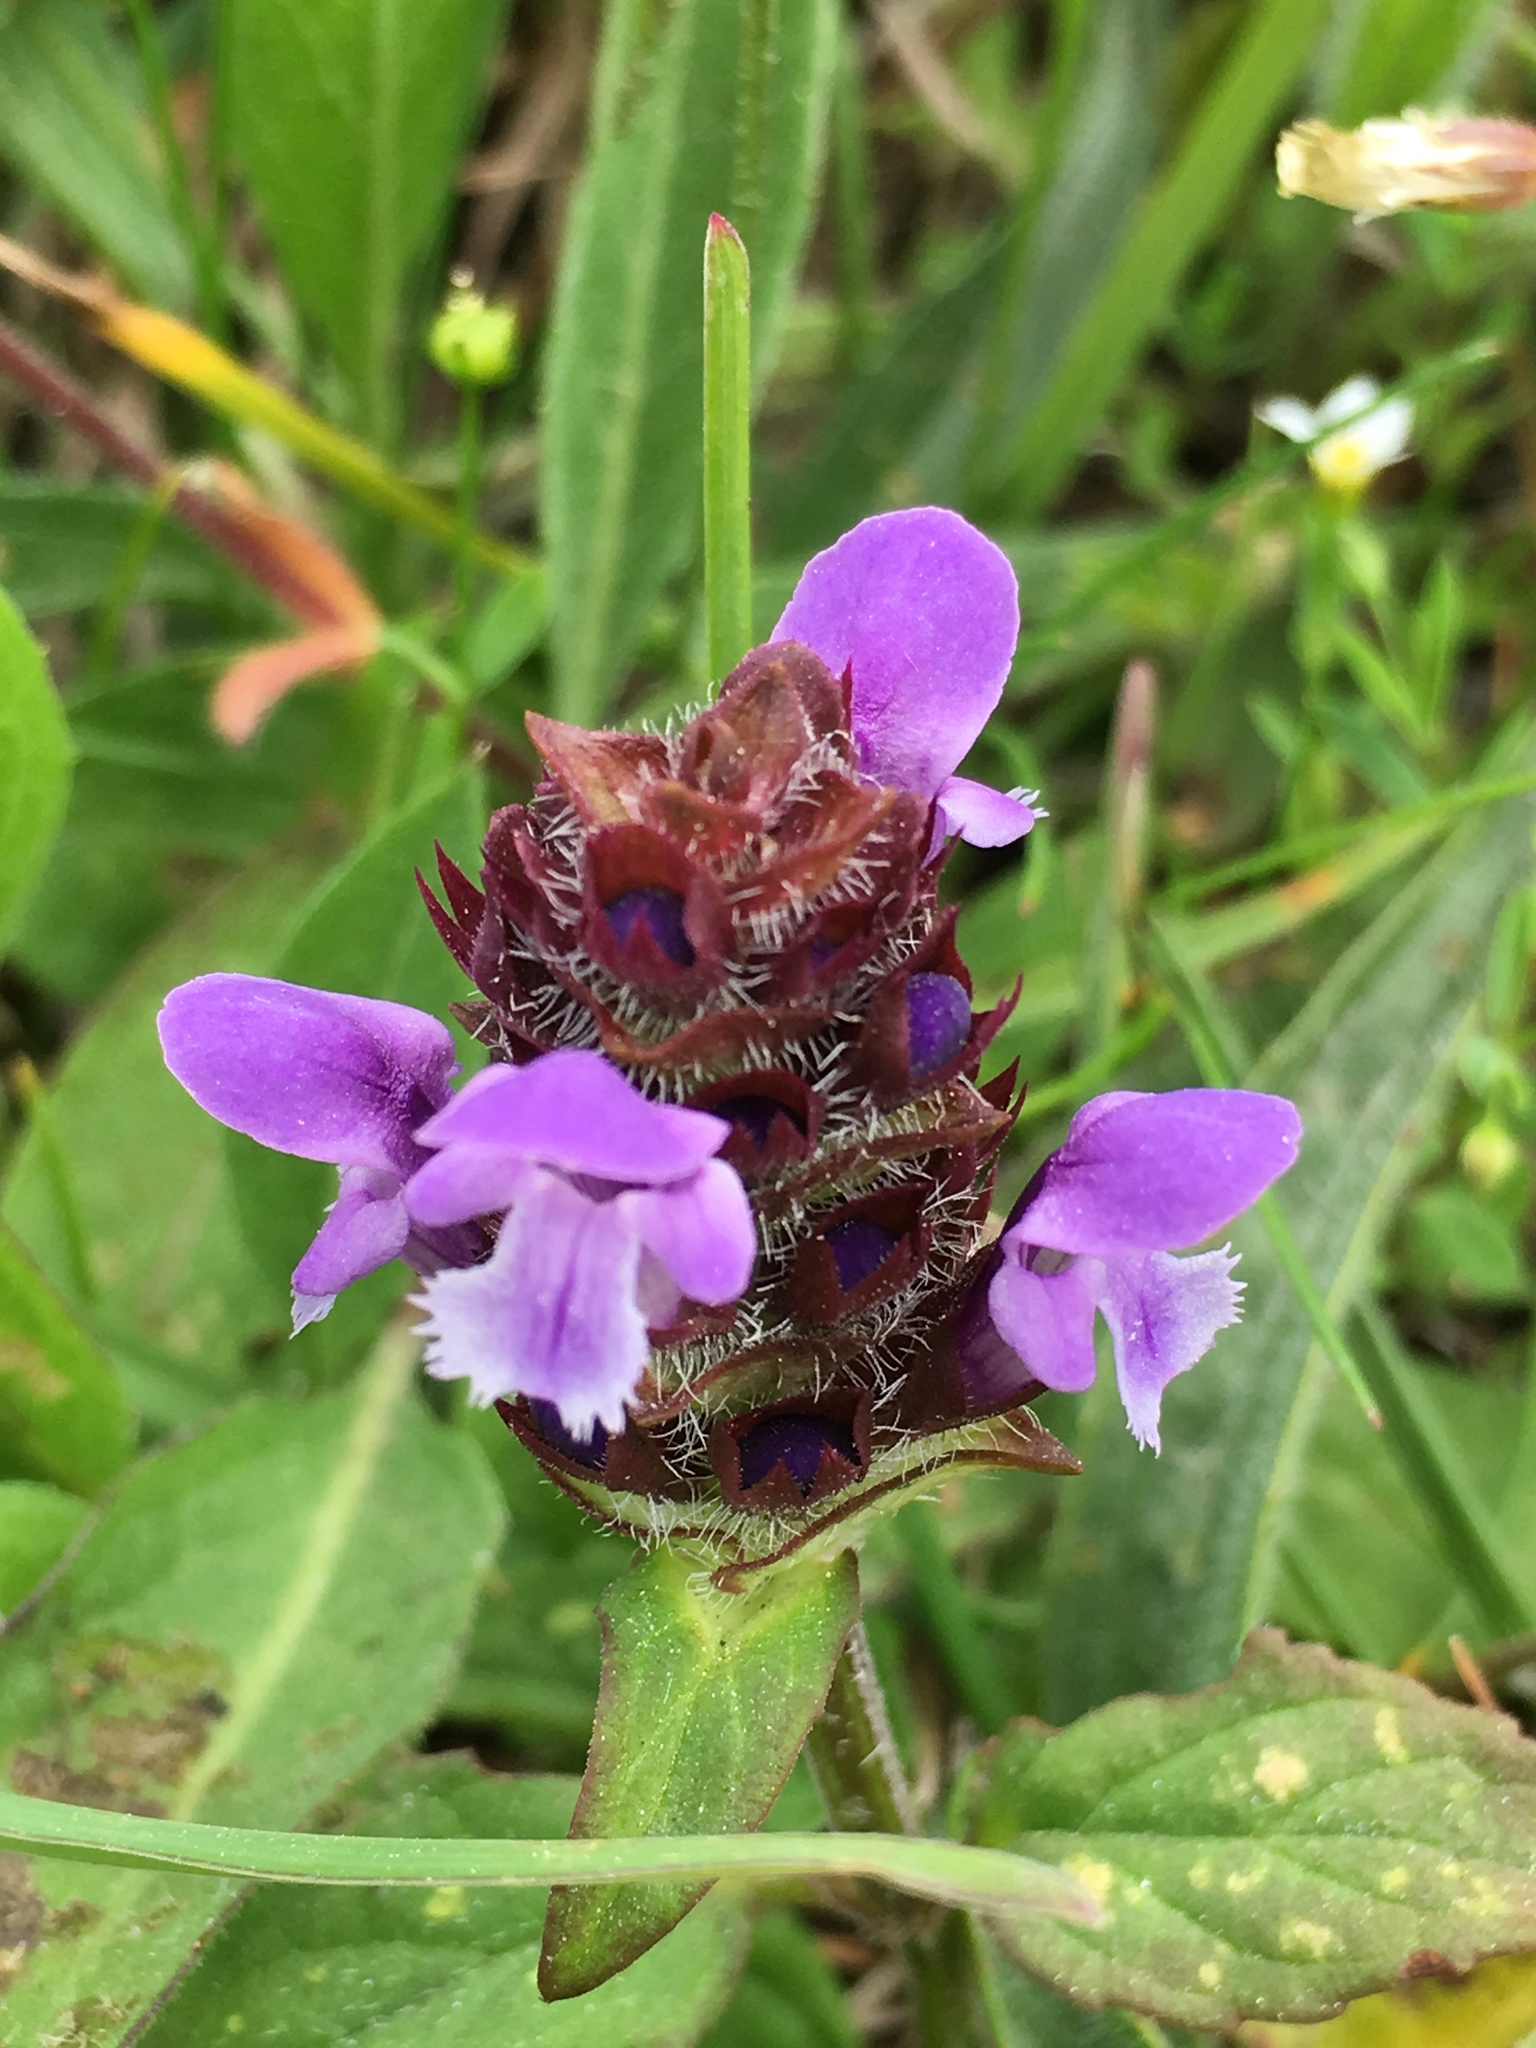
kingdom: Plantae
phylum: Tracheophyta
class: Magnoliopsida
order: Lamiales
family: Lamiaceae
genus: Prunella
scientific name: Prunella vulgaris
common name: Heal-all
